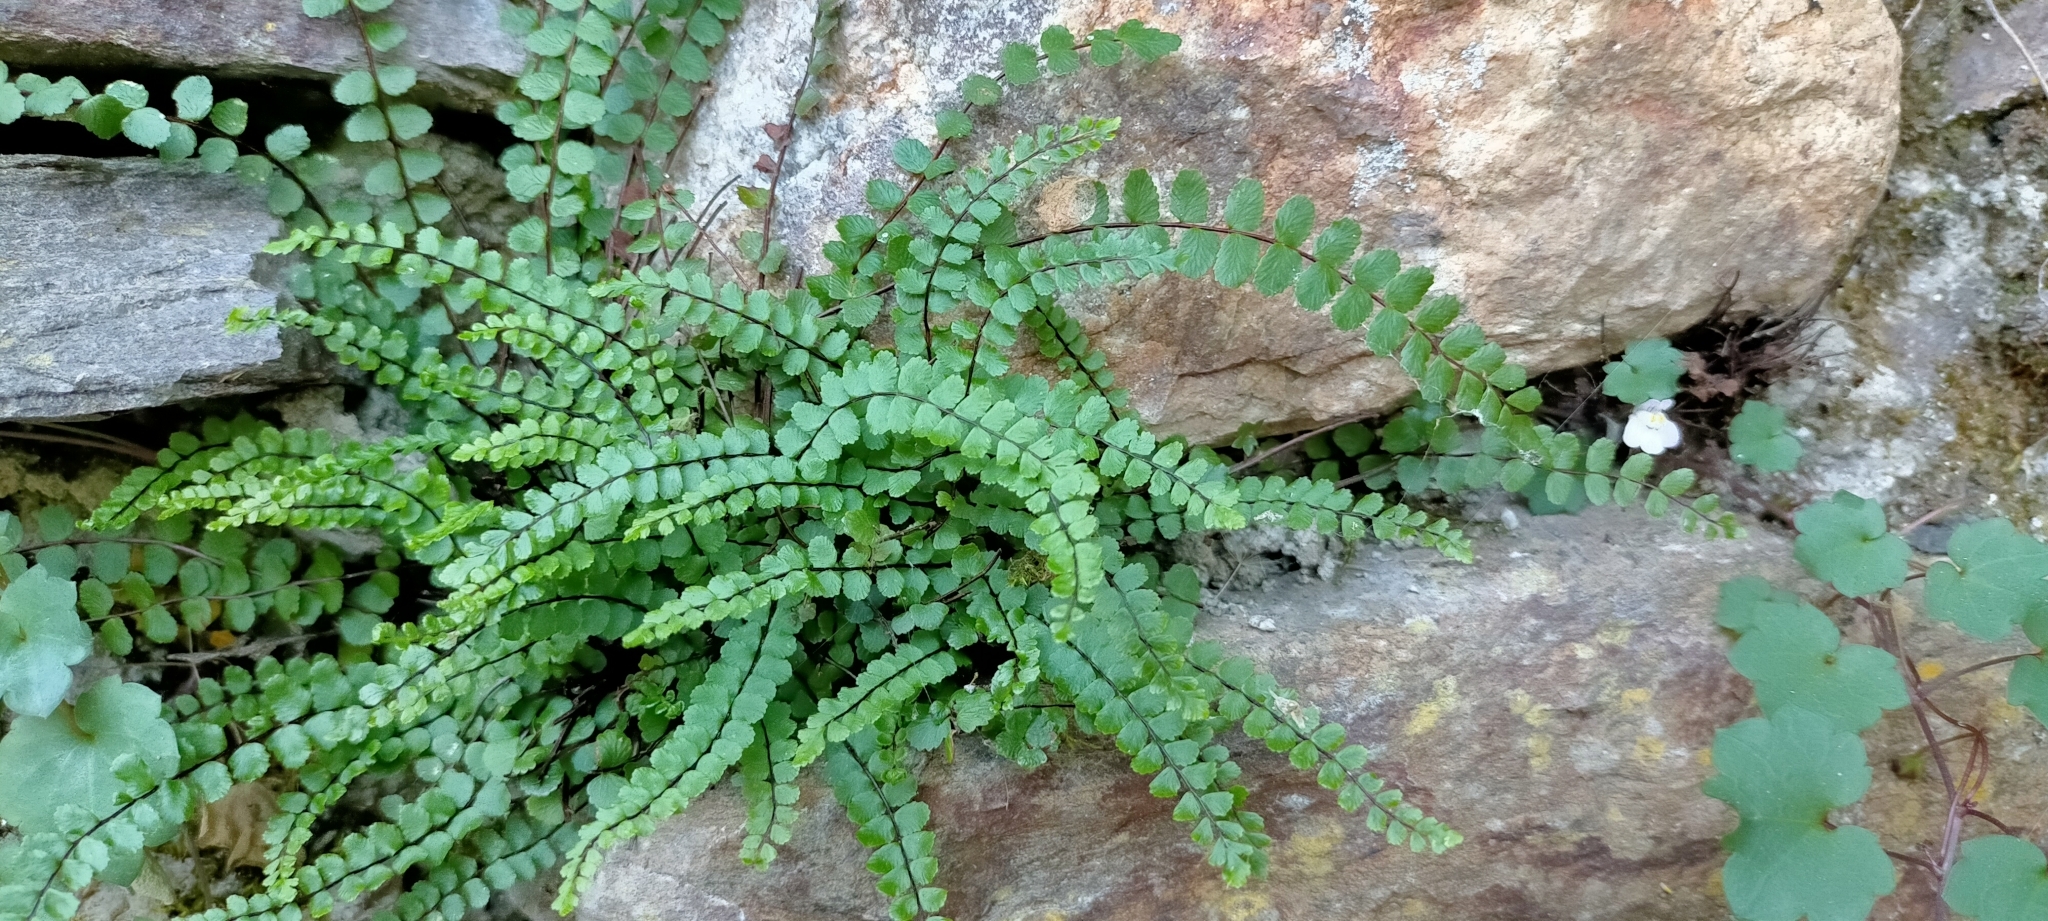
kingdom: Plantae
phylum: Tracheophyta
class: Polypodiopsida
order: Polypodiales
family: Aspleniaceae
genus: Asplenium
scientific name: Asplenium trichomanes
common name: Maidenhair spleenwort
